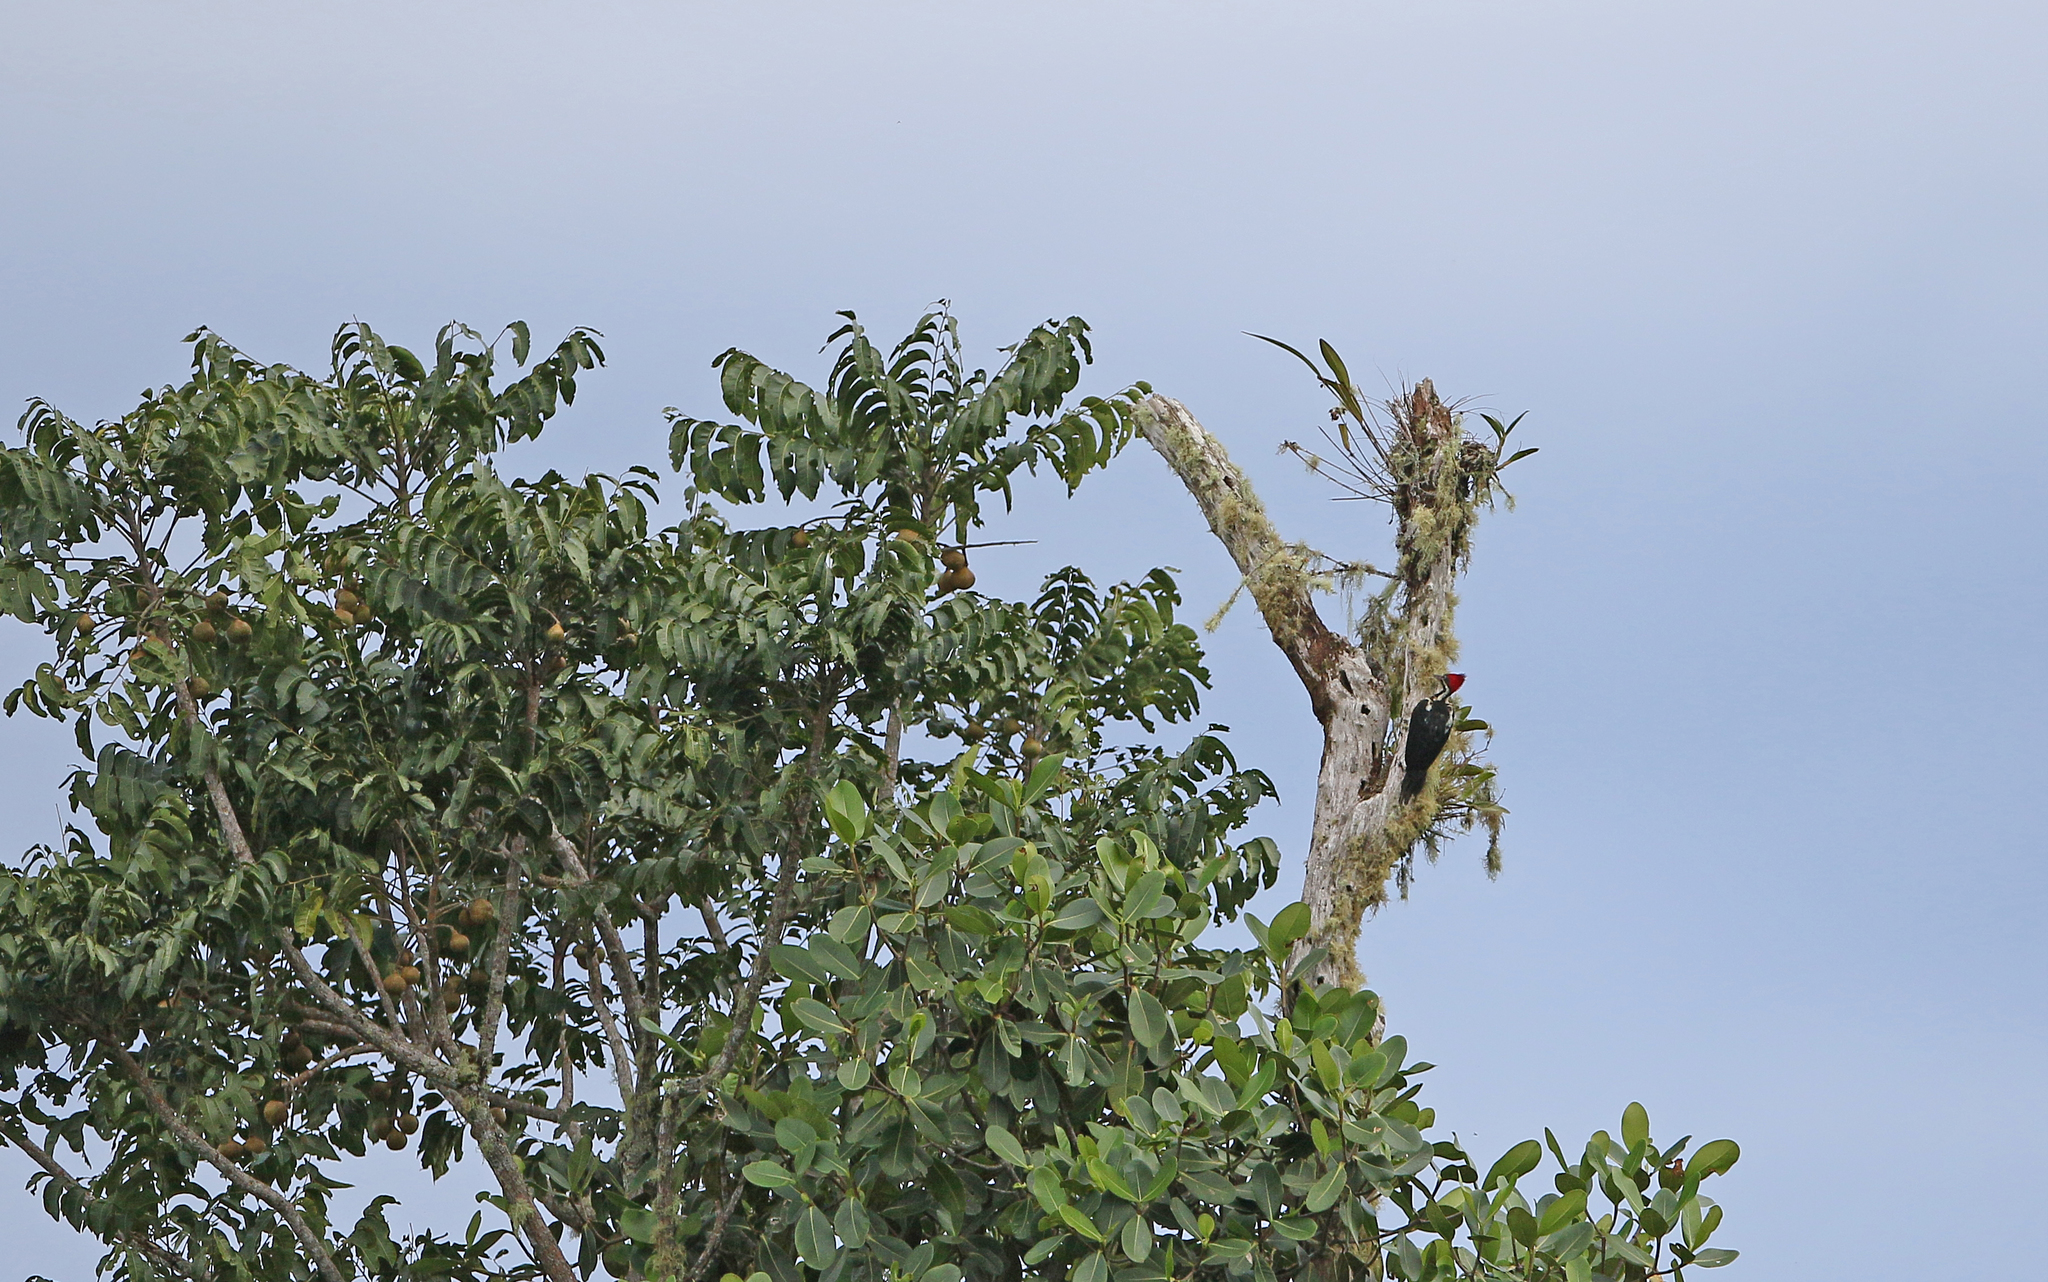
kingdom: Animalia
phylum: Chordata
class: Aves
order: Piciformes
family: Picidae
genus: Dryocopus
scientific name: Dryocopus lineatus
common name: Lineated woodpecker
